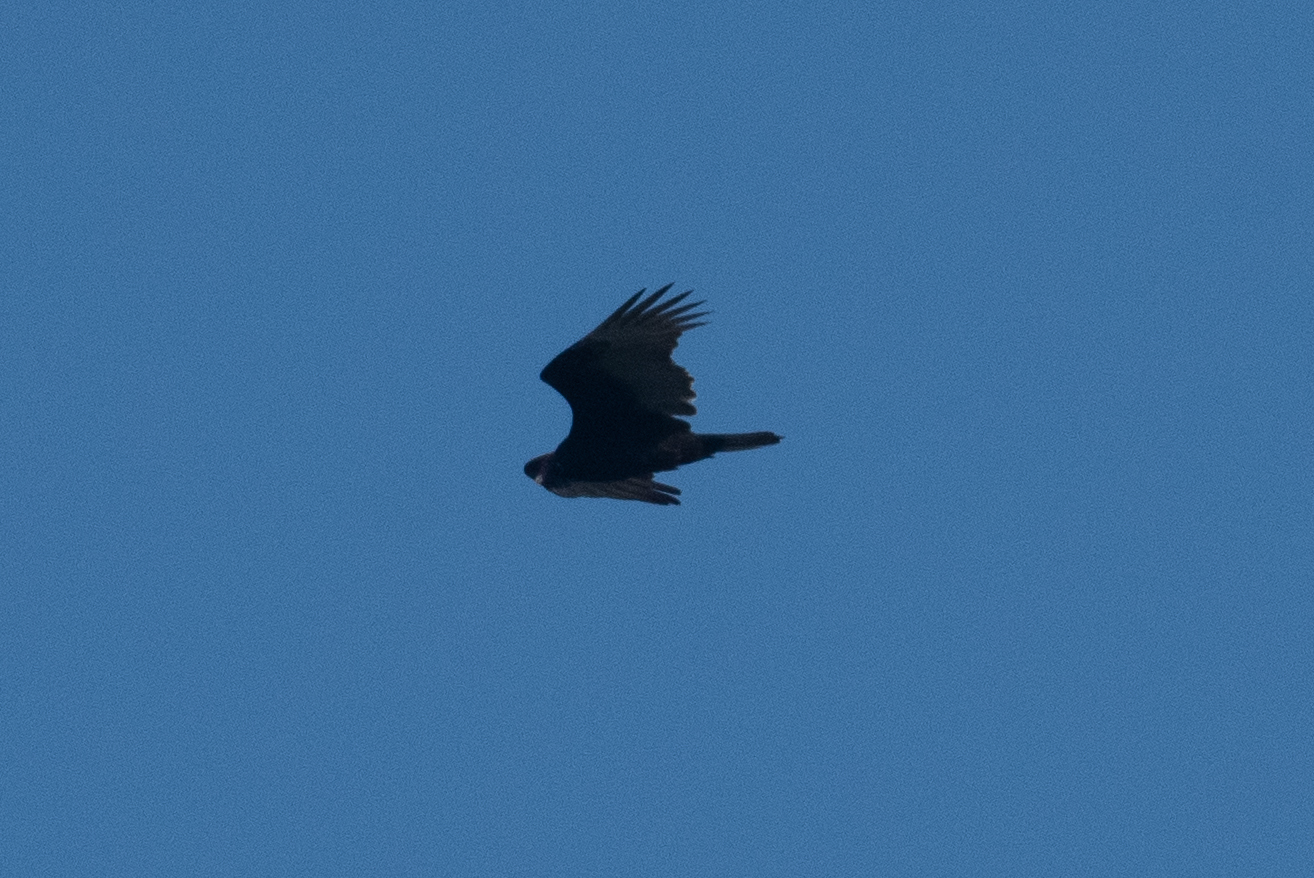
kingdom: Animalia
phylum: Chordata
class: Aves
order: Accipitriformes
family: Cathartidae
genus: Cathartes
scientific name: Cathartes aura
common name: Turkey vulture
